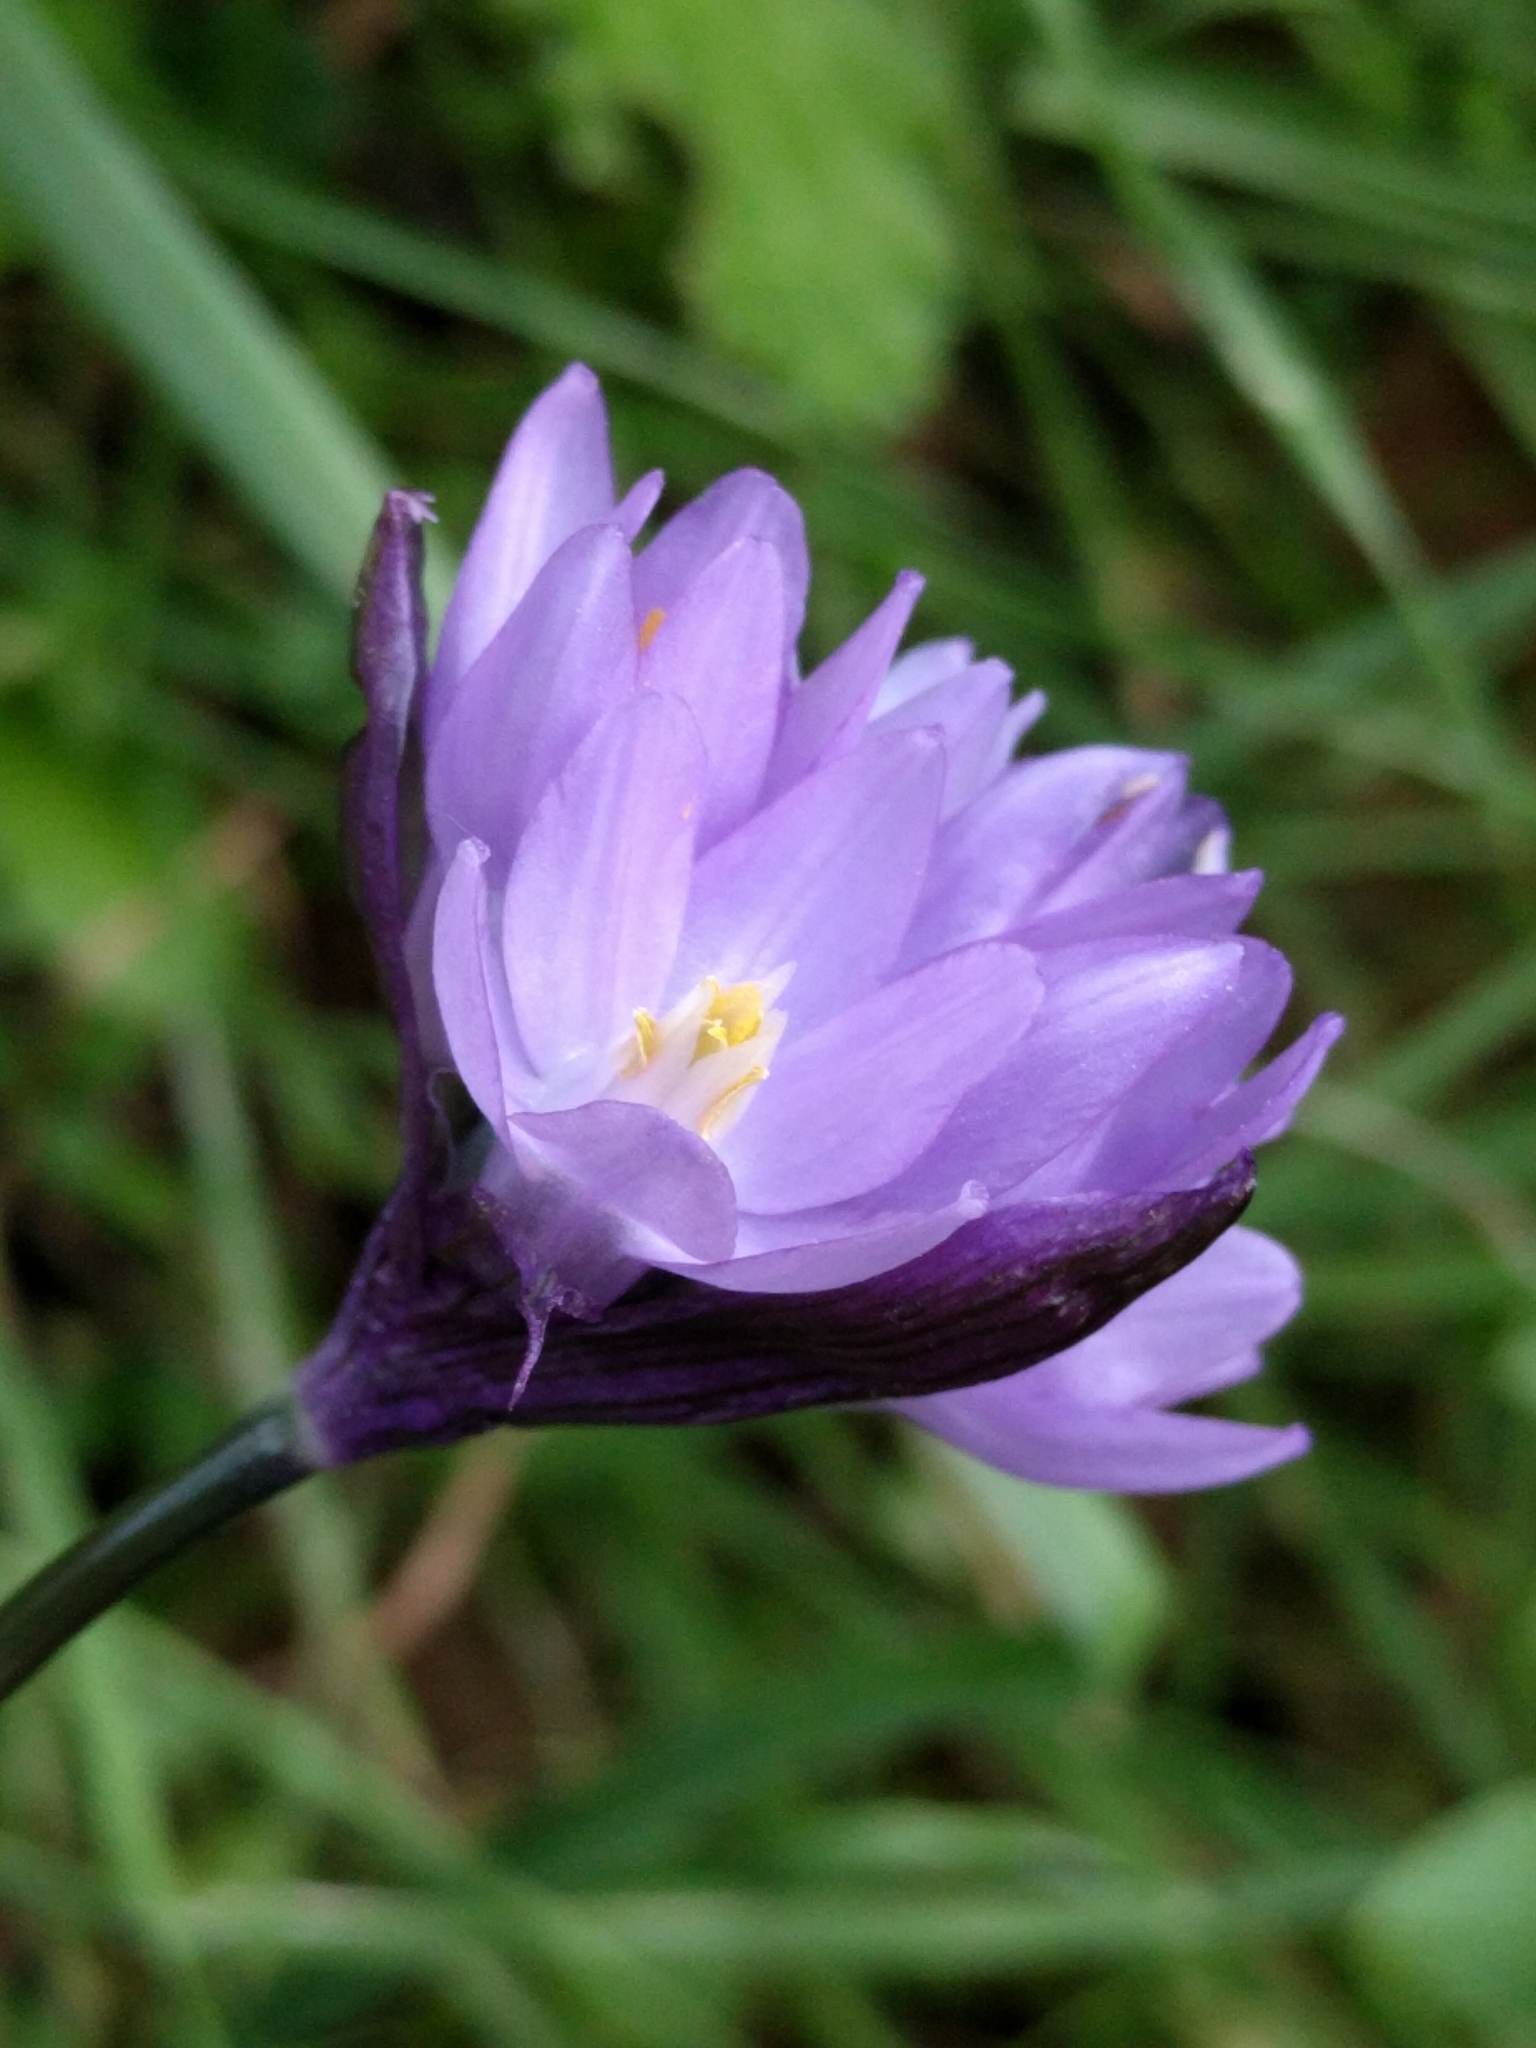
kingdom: Plantae
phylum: Tracheophyta
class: Liliopsida
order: Asparagales
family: Asparagaceae
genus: Dipterostemon
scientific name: Dipterostemon capitatus
